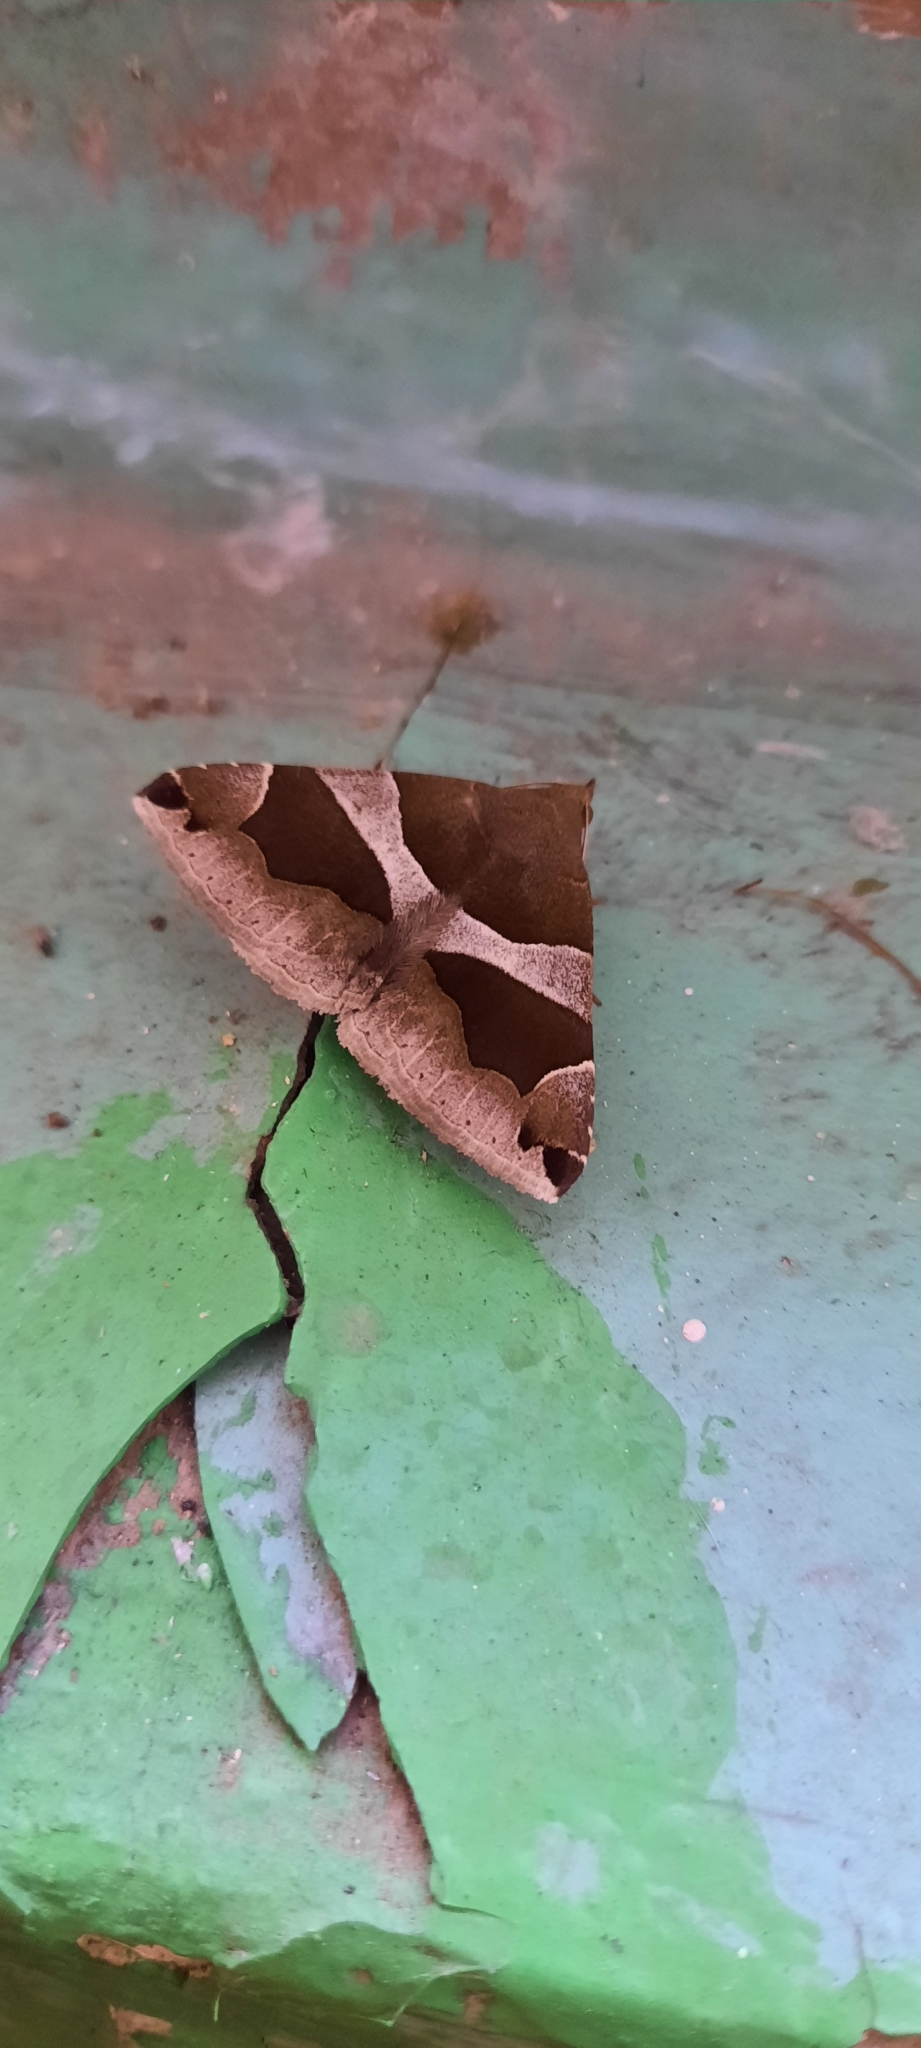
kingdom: Animalia
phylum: Arthropoda
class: Insecta
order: Lepidoptera
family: Erebidae
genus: Dysgonia
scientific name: Dysgonia algira
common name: Passenger
